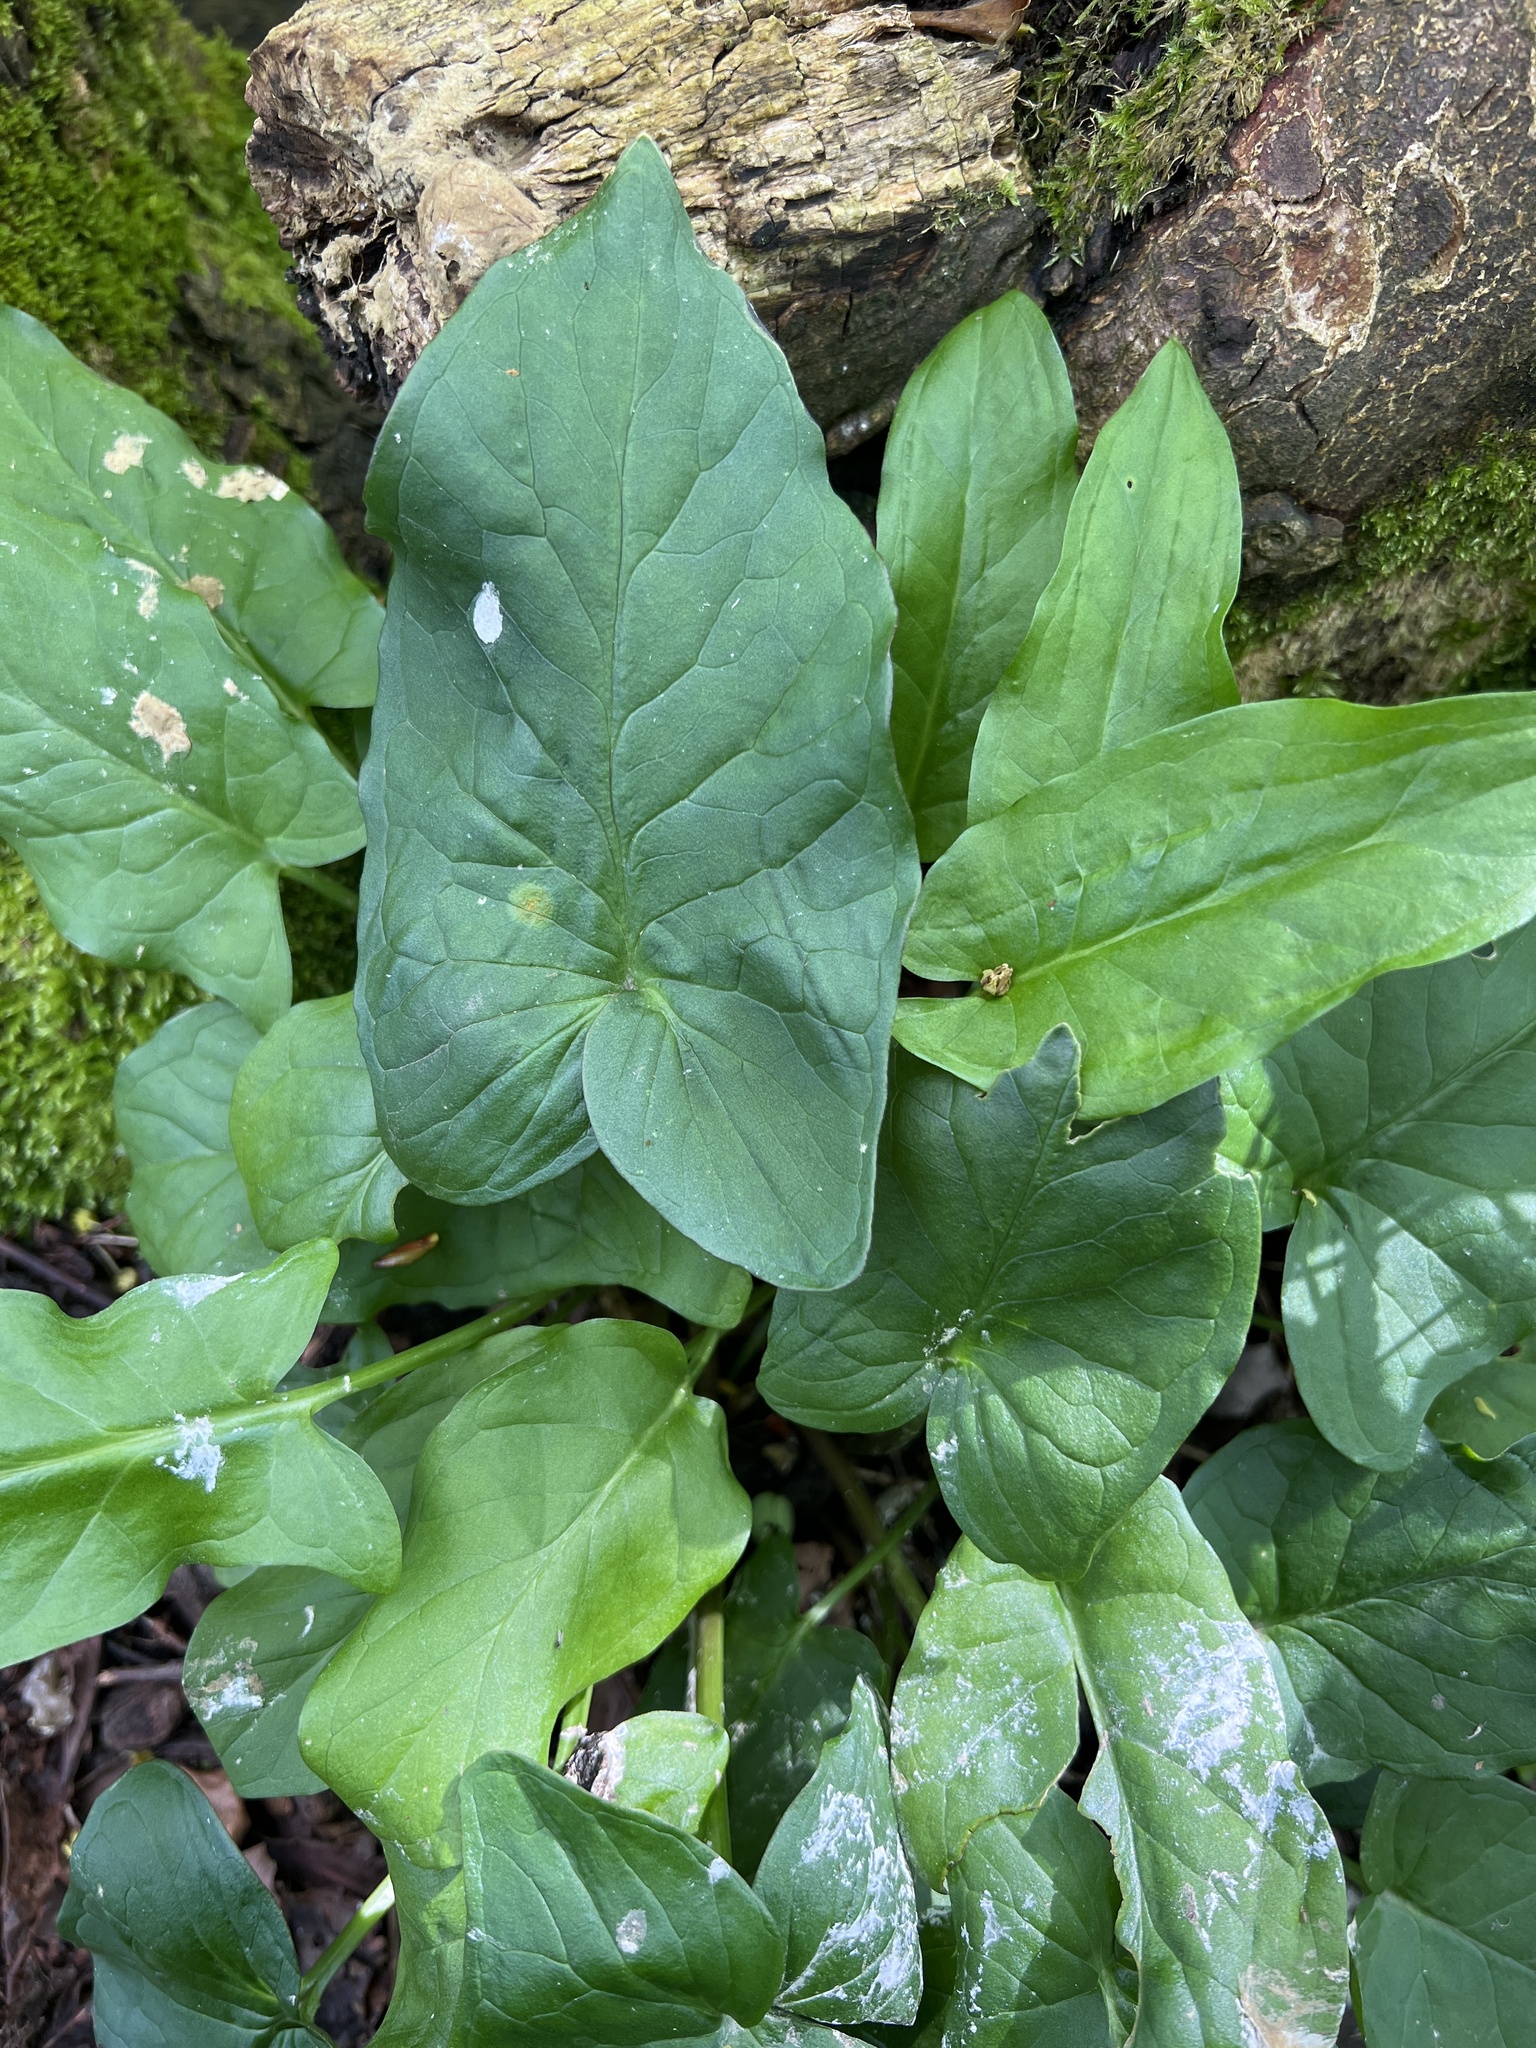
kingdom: Plantae
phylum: Tracheophyta
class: Liliopsida
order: Alismatales
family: Araceae
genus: Arum
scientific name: Arum maculatum
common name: Lords-and-ladies
